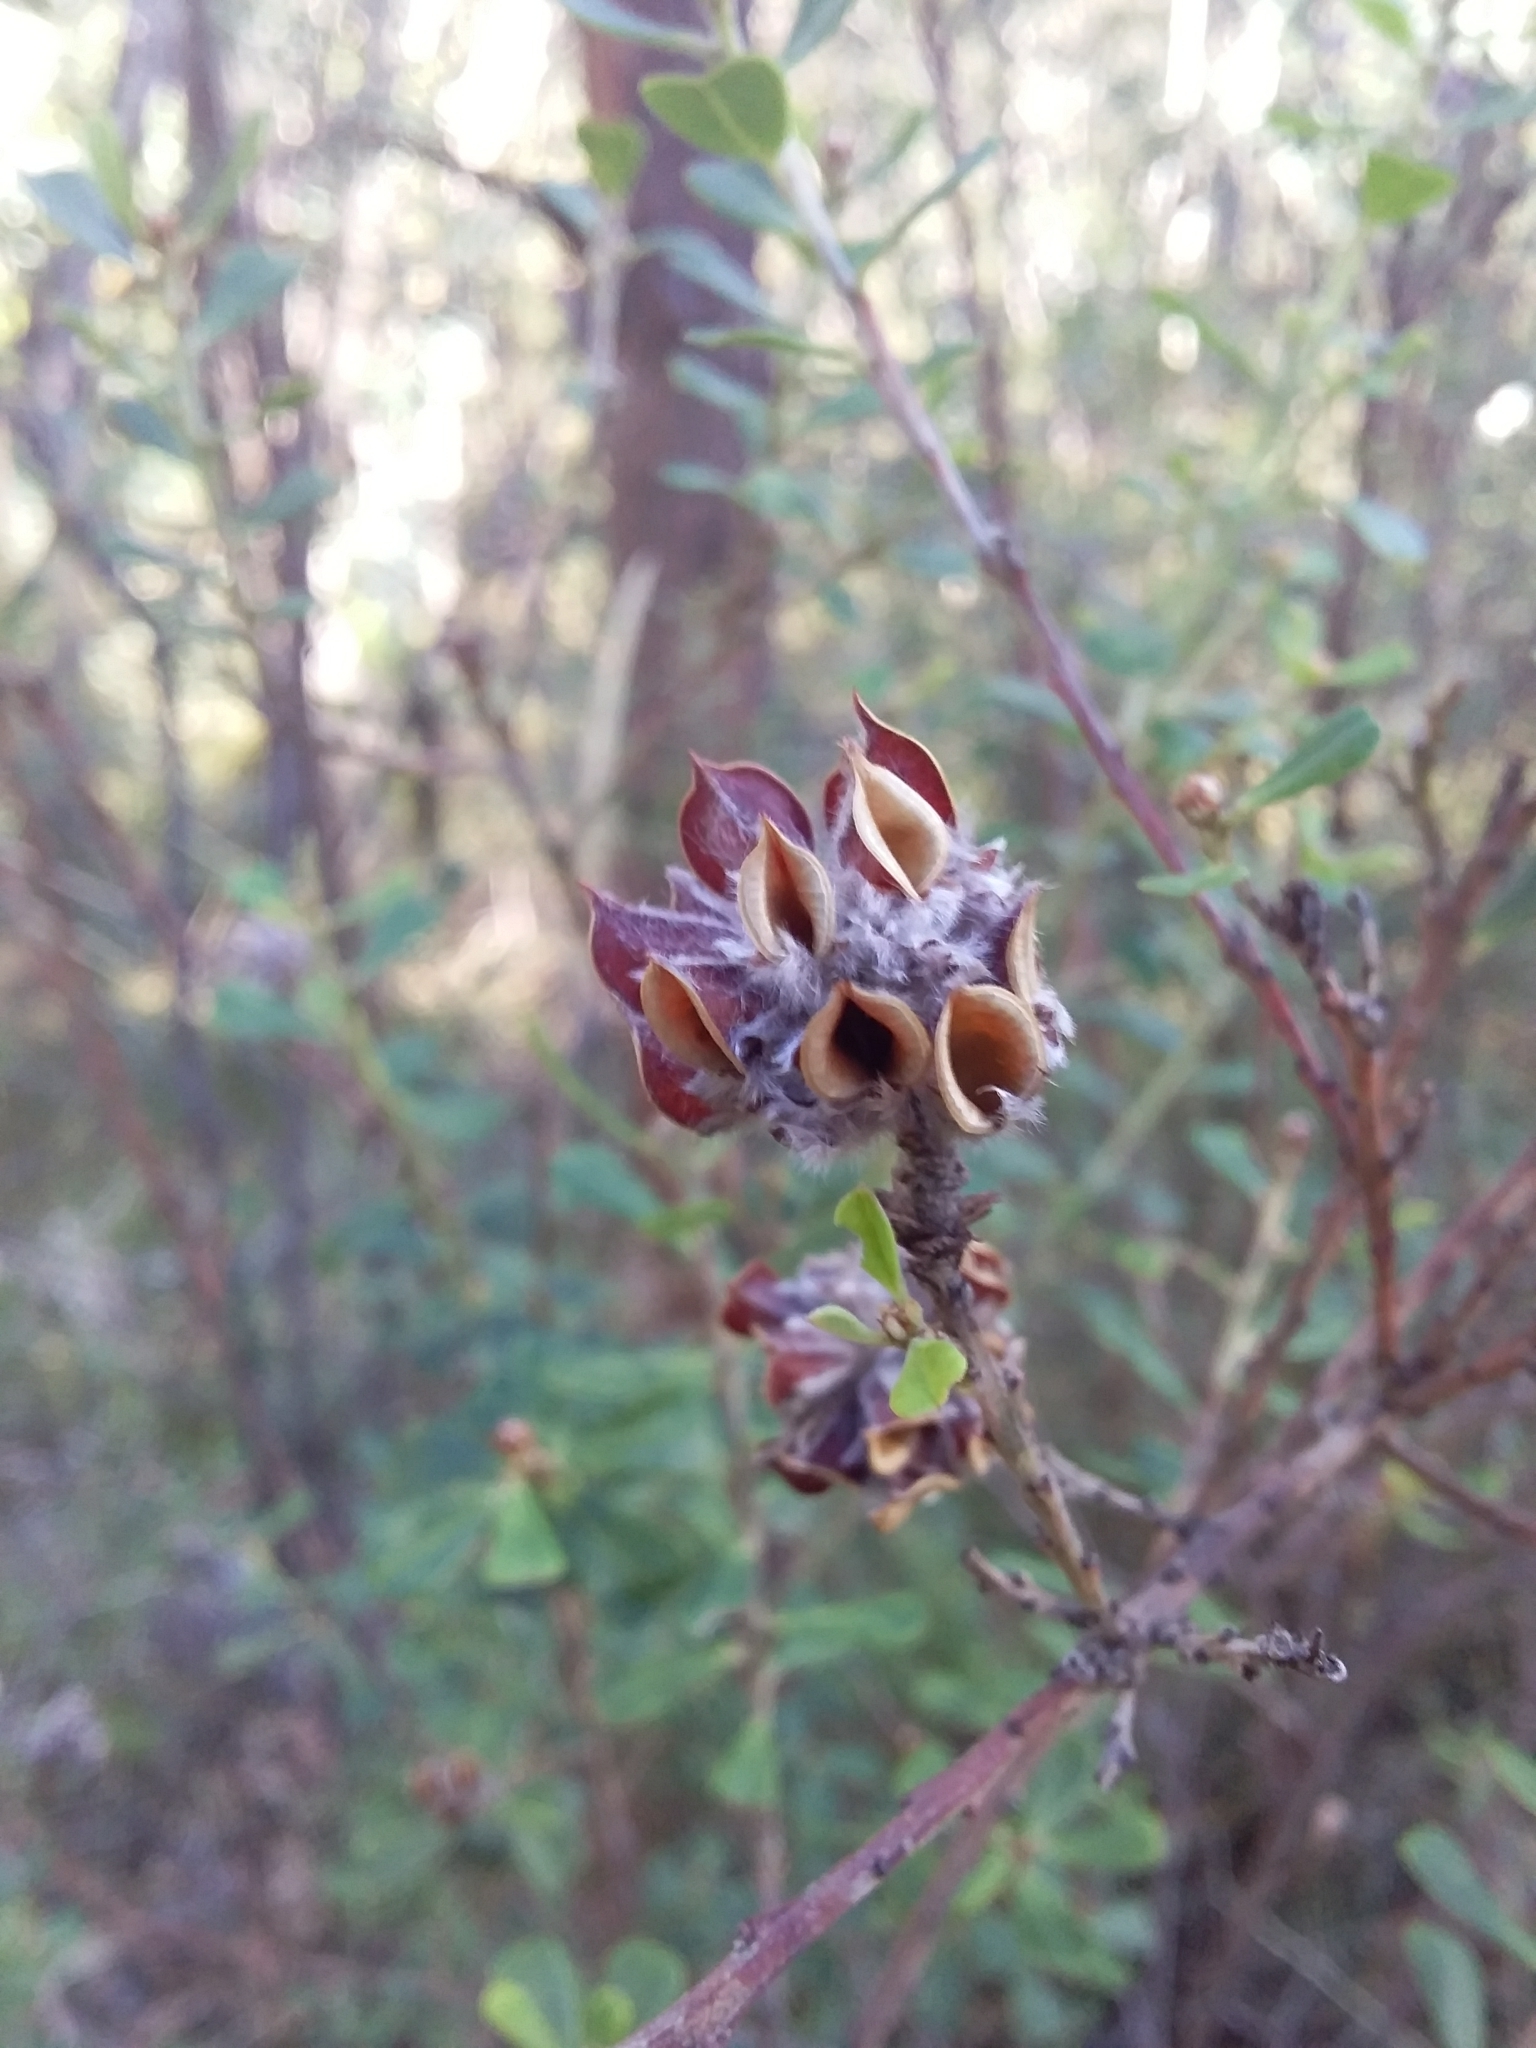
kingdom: Plantae
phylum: Tracheophyta
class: Magnoliopsida
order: Fabales
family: Fabaceae
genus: Pultenaea
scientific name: Pultenaea daphnoides
